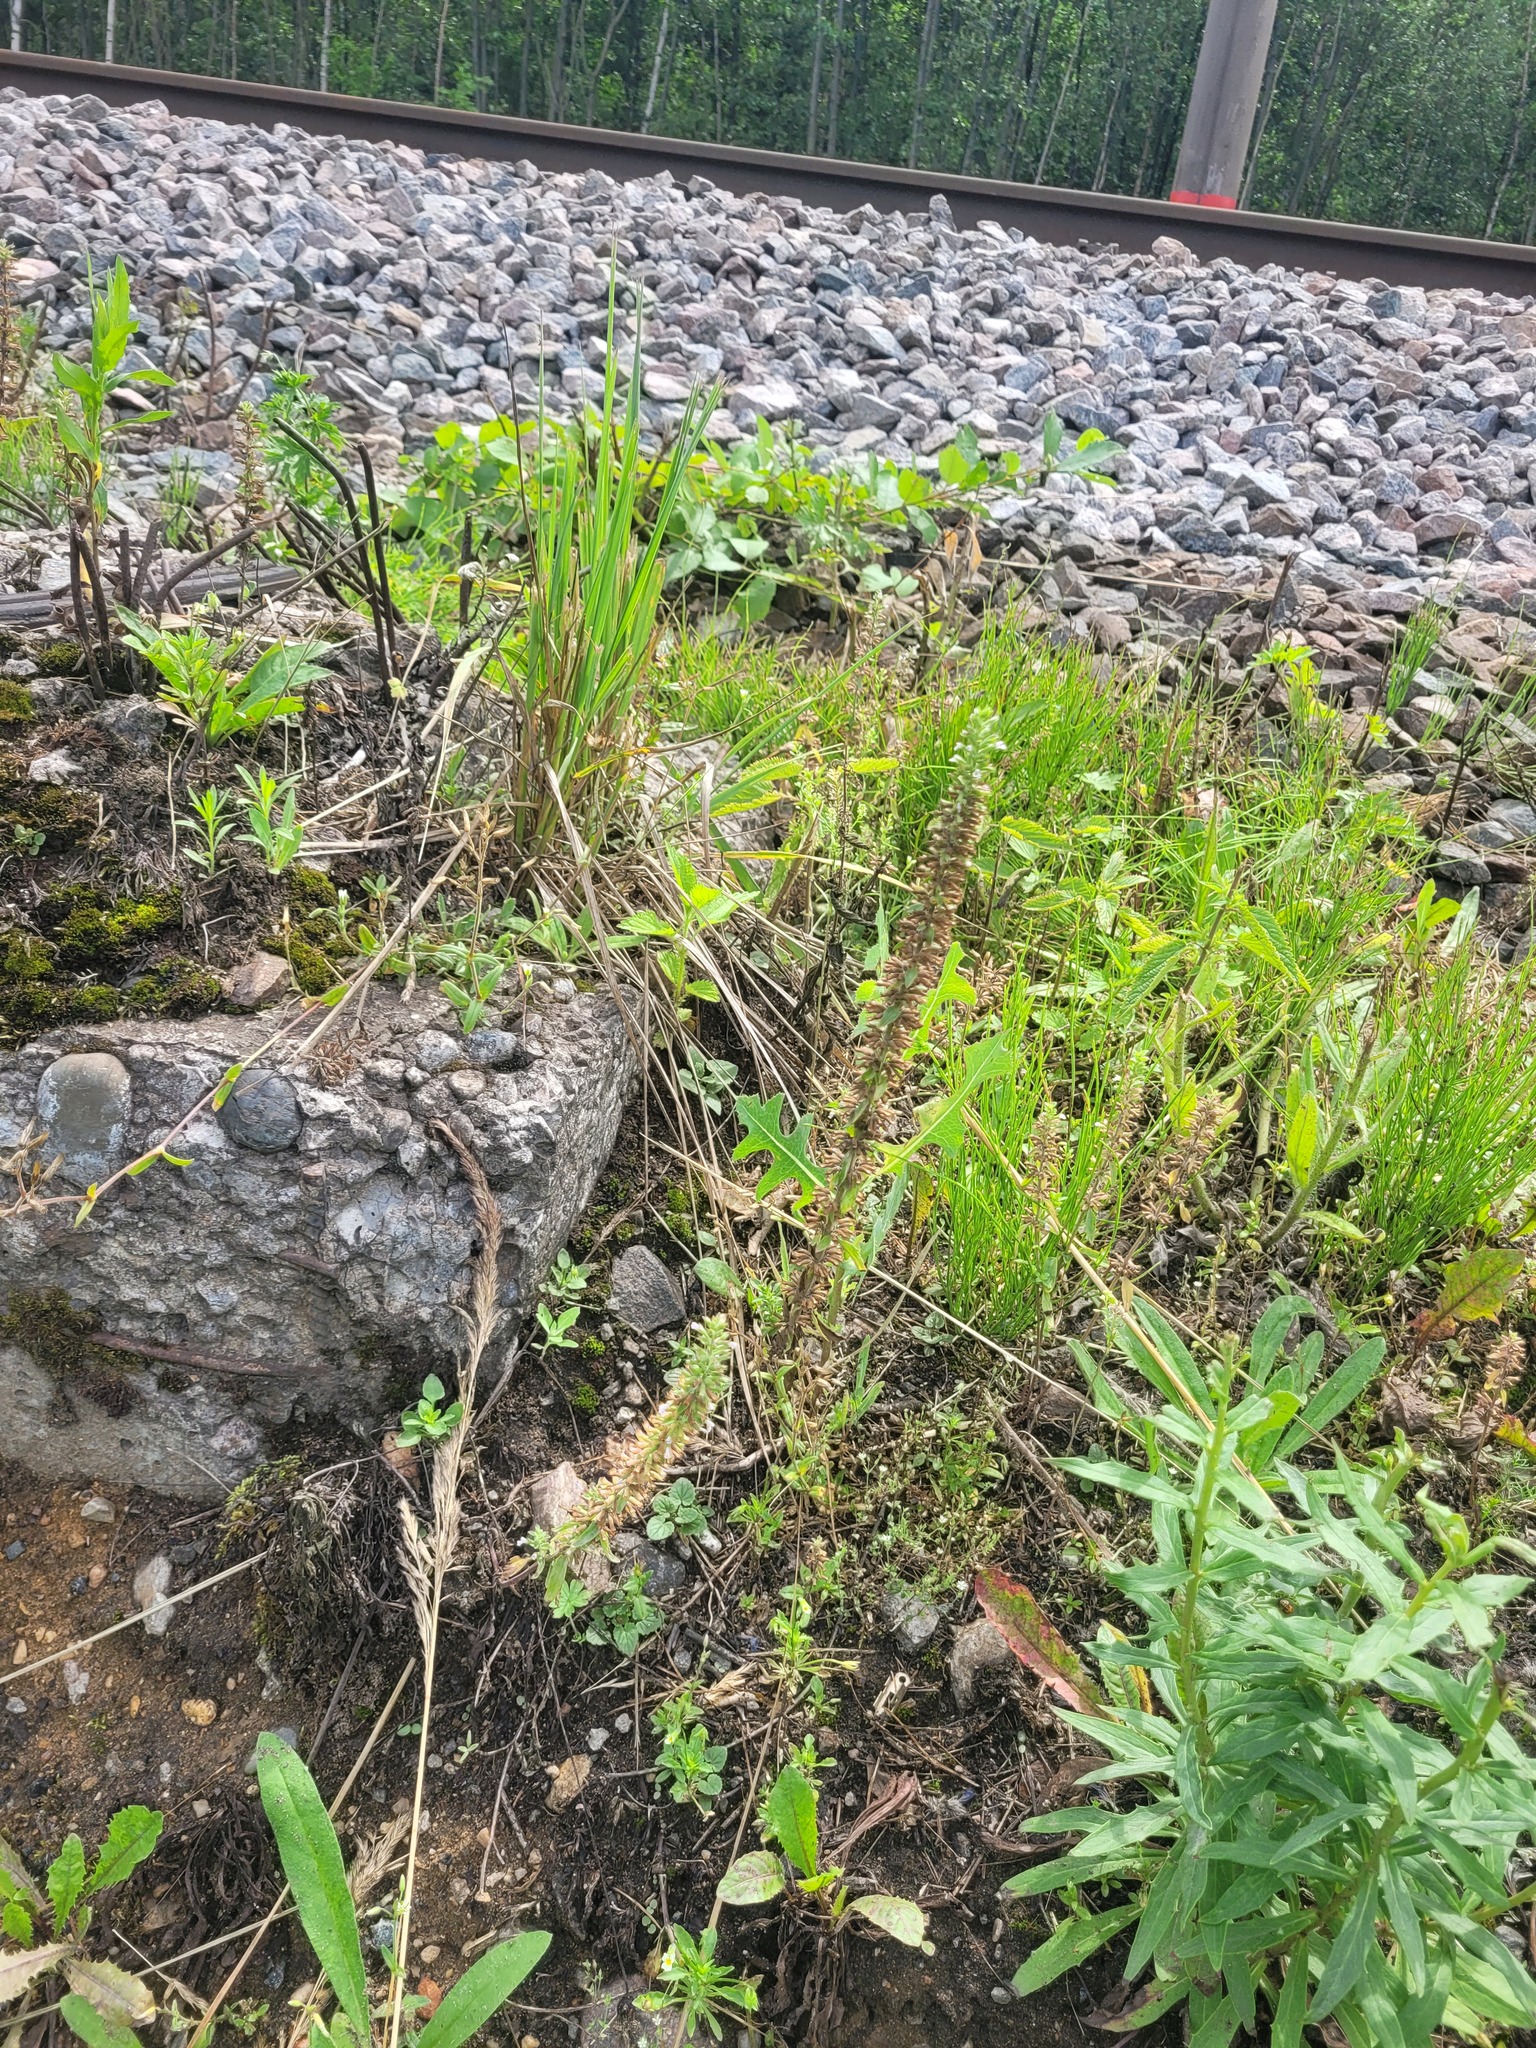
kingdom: Plantae
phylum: Tracheophyta
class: Magnoliopsida
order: Lamiales
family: Lamiaceae
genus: Dracocephalum
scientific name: Dracocephalum thymiflorum
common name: Thymeleaf dragonhead
